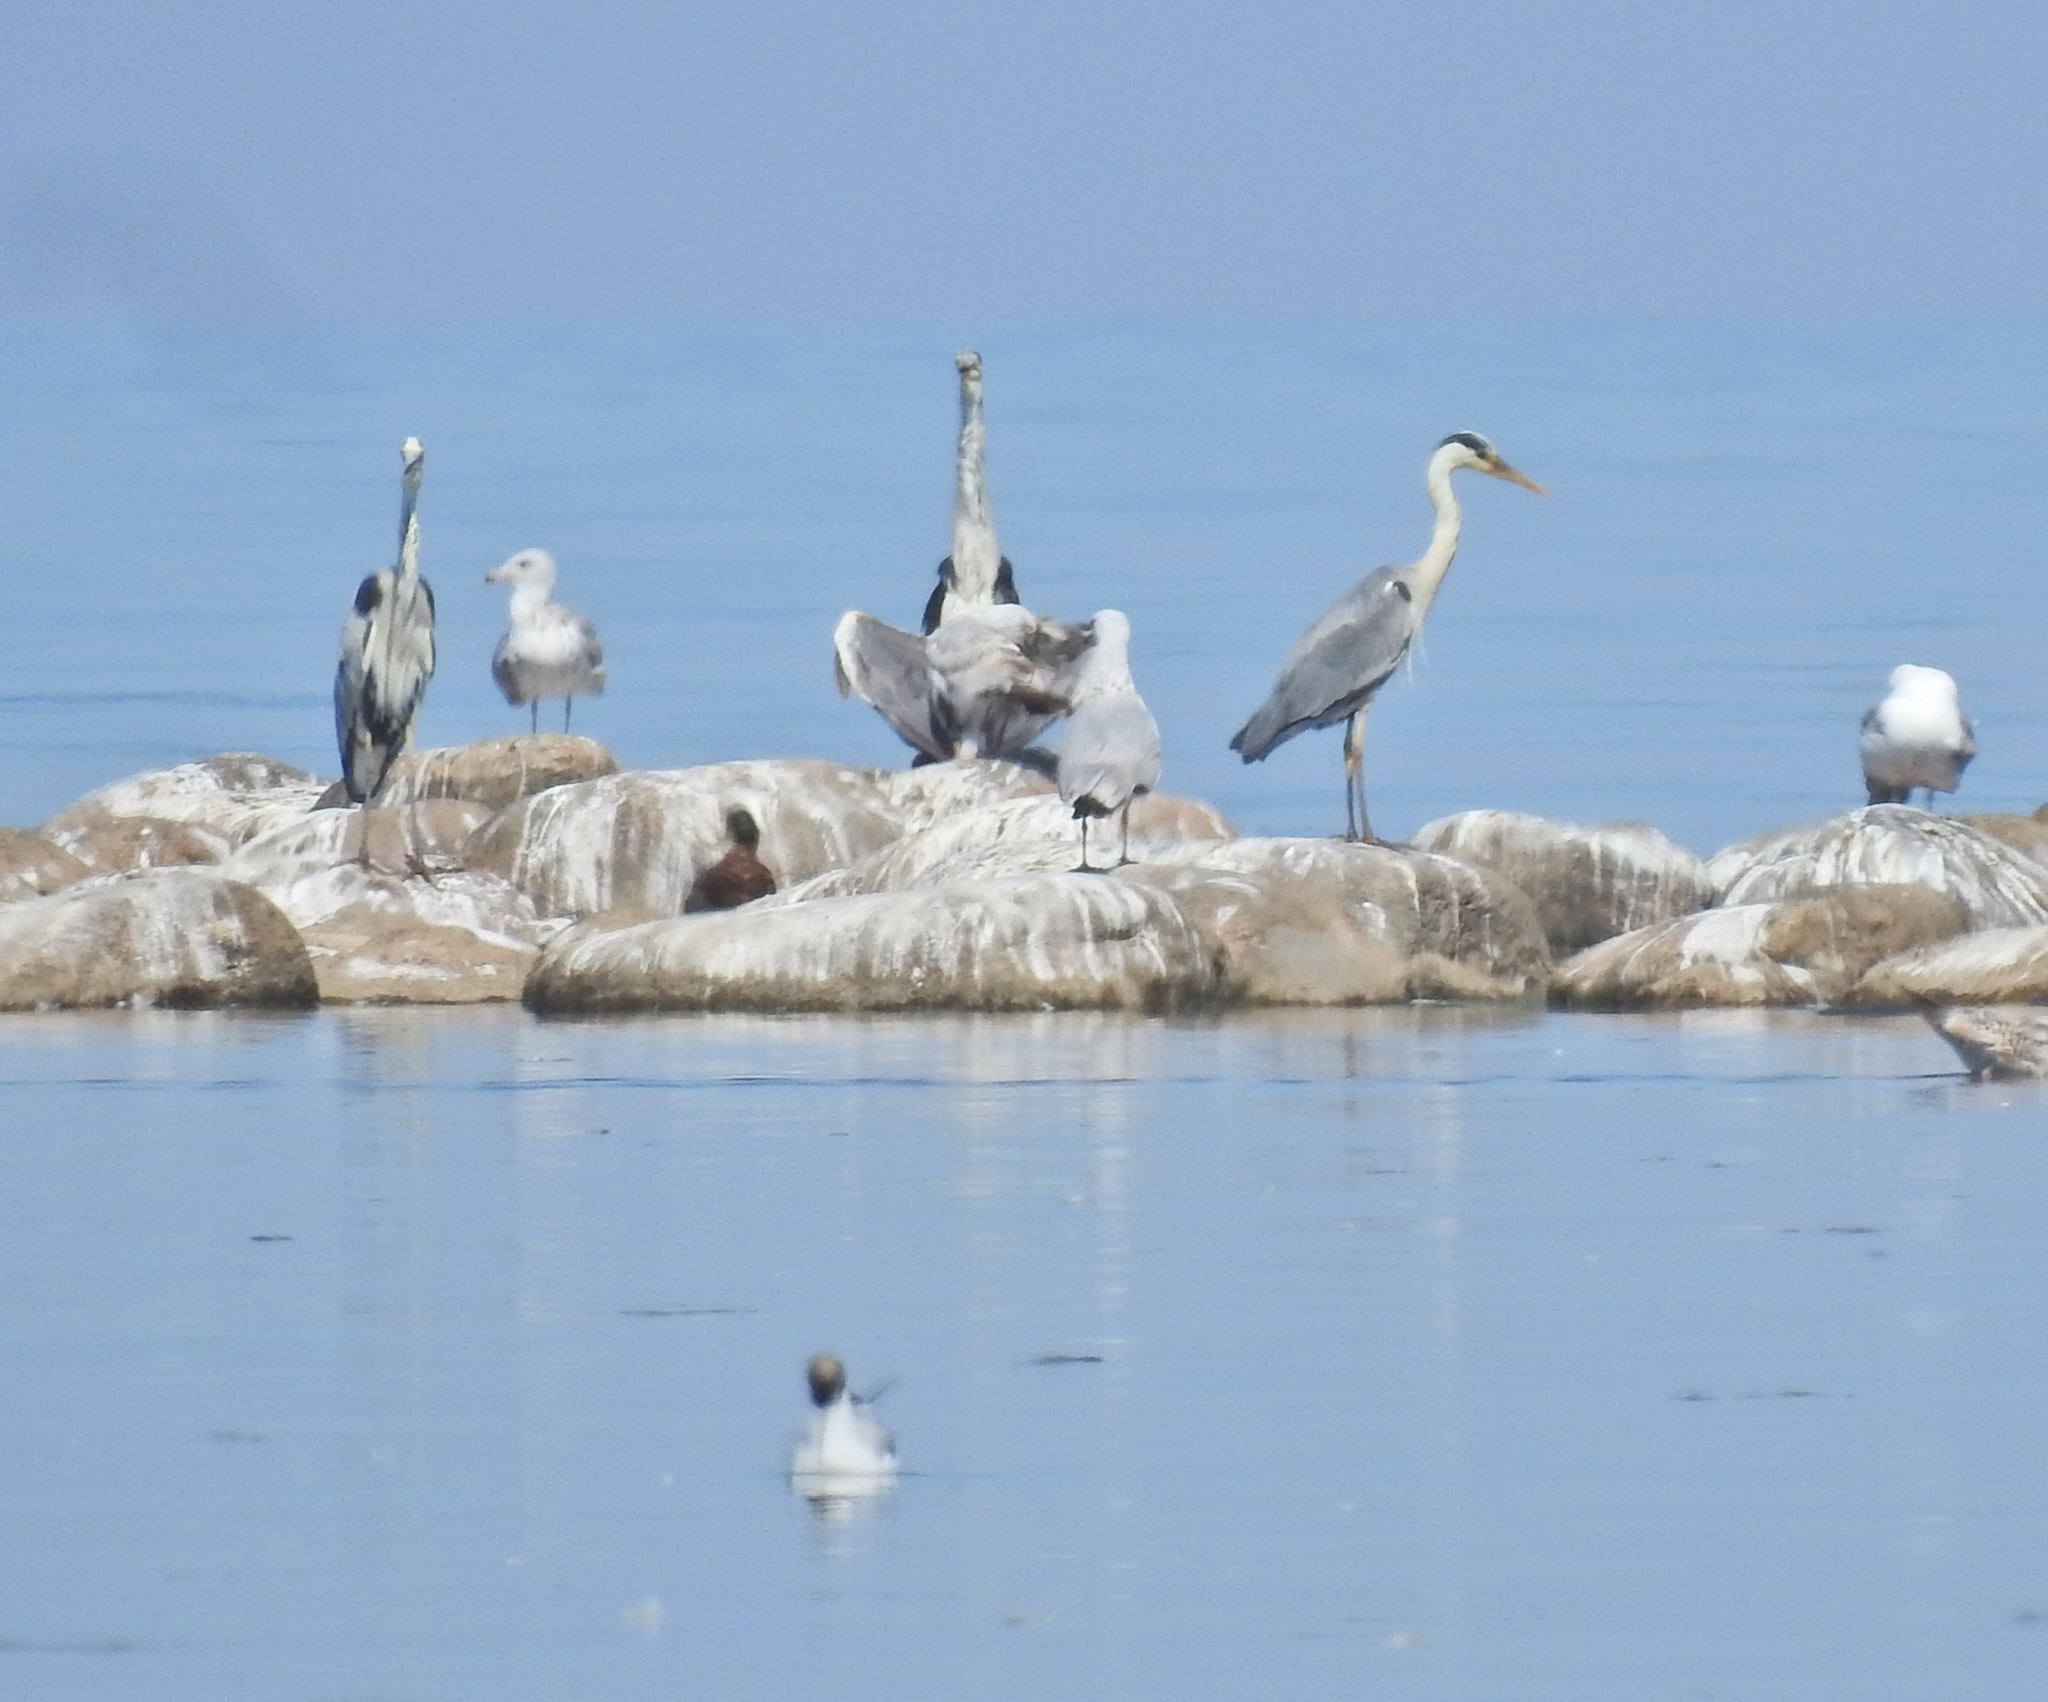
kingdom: Animalia
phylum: Chordata
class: Aves
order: Pelecaniformes
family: Ardeidae
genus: Ardea
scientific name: Ardea cinerea
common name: Grey heron
